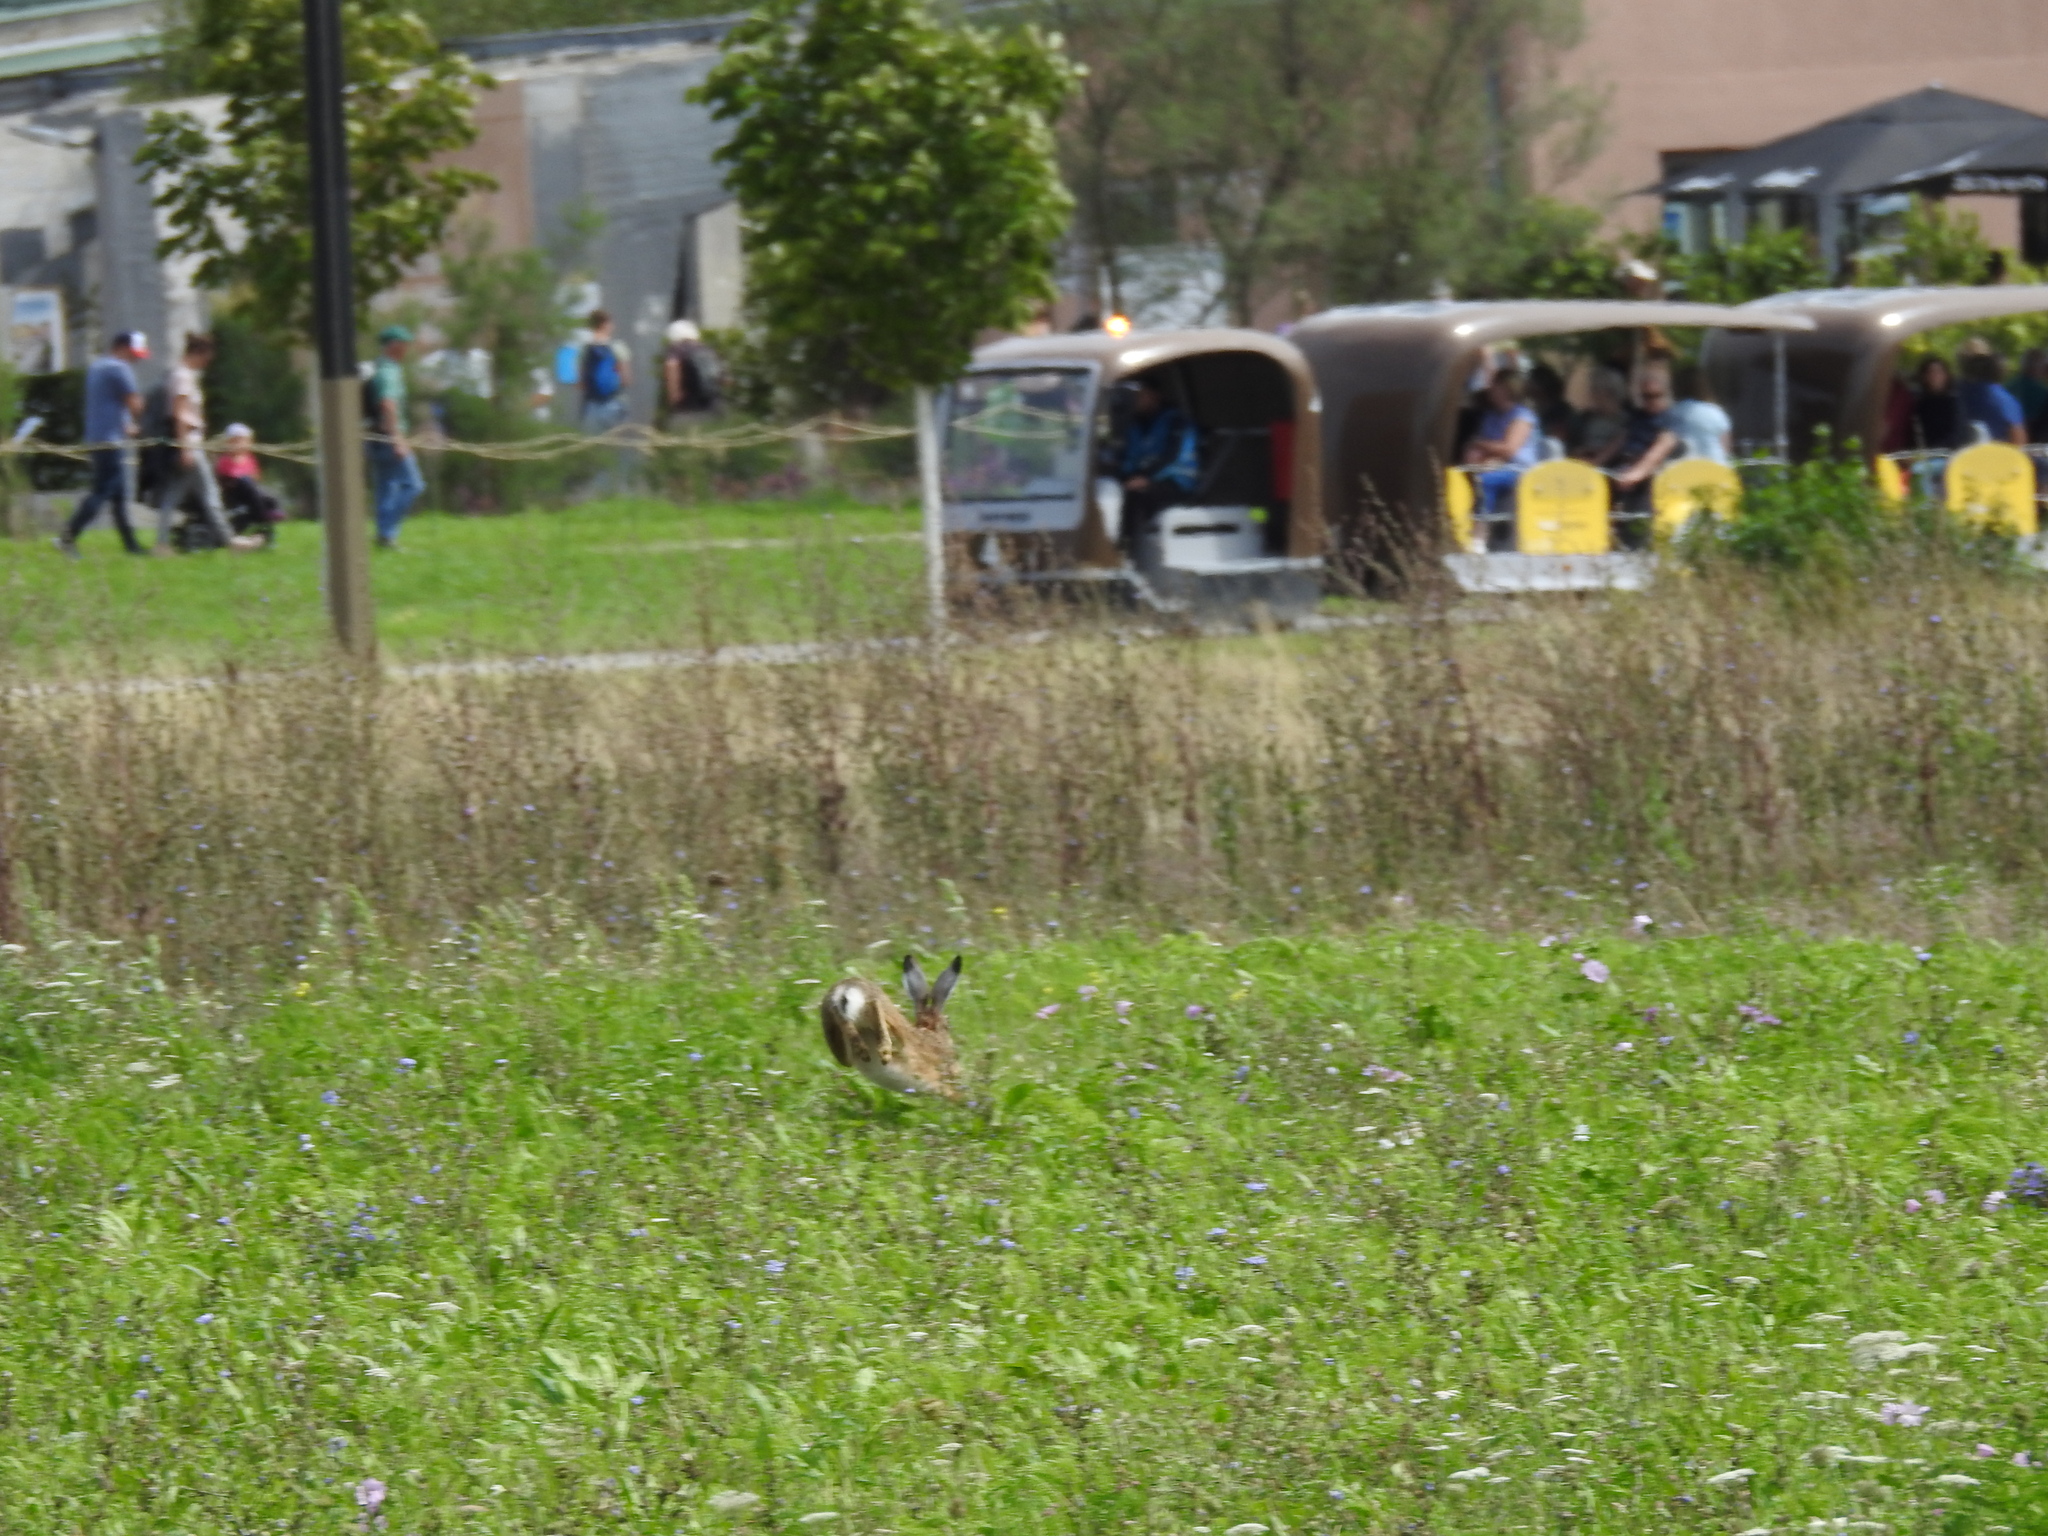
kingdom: Animalia
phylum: Chordata
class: Mammalia
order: Lagomorpha
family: Leporidae
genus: Lepus
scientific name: Lepus europaeus
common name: European hare
